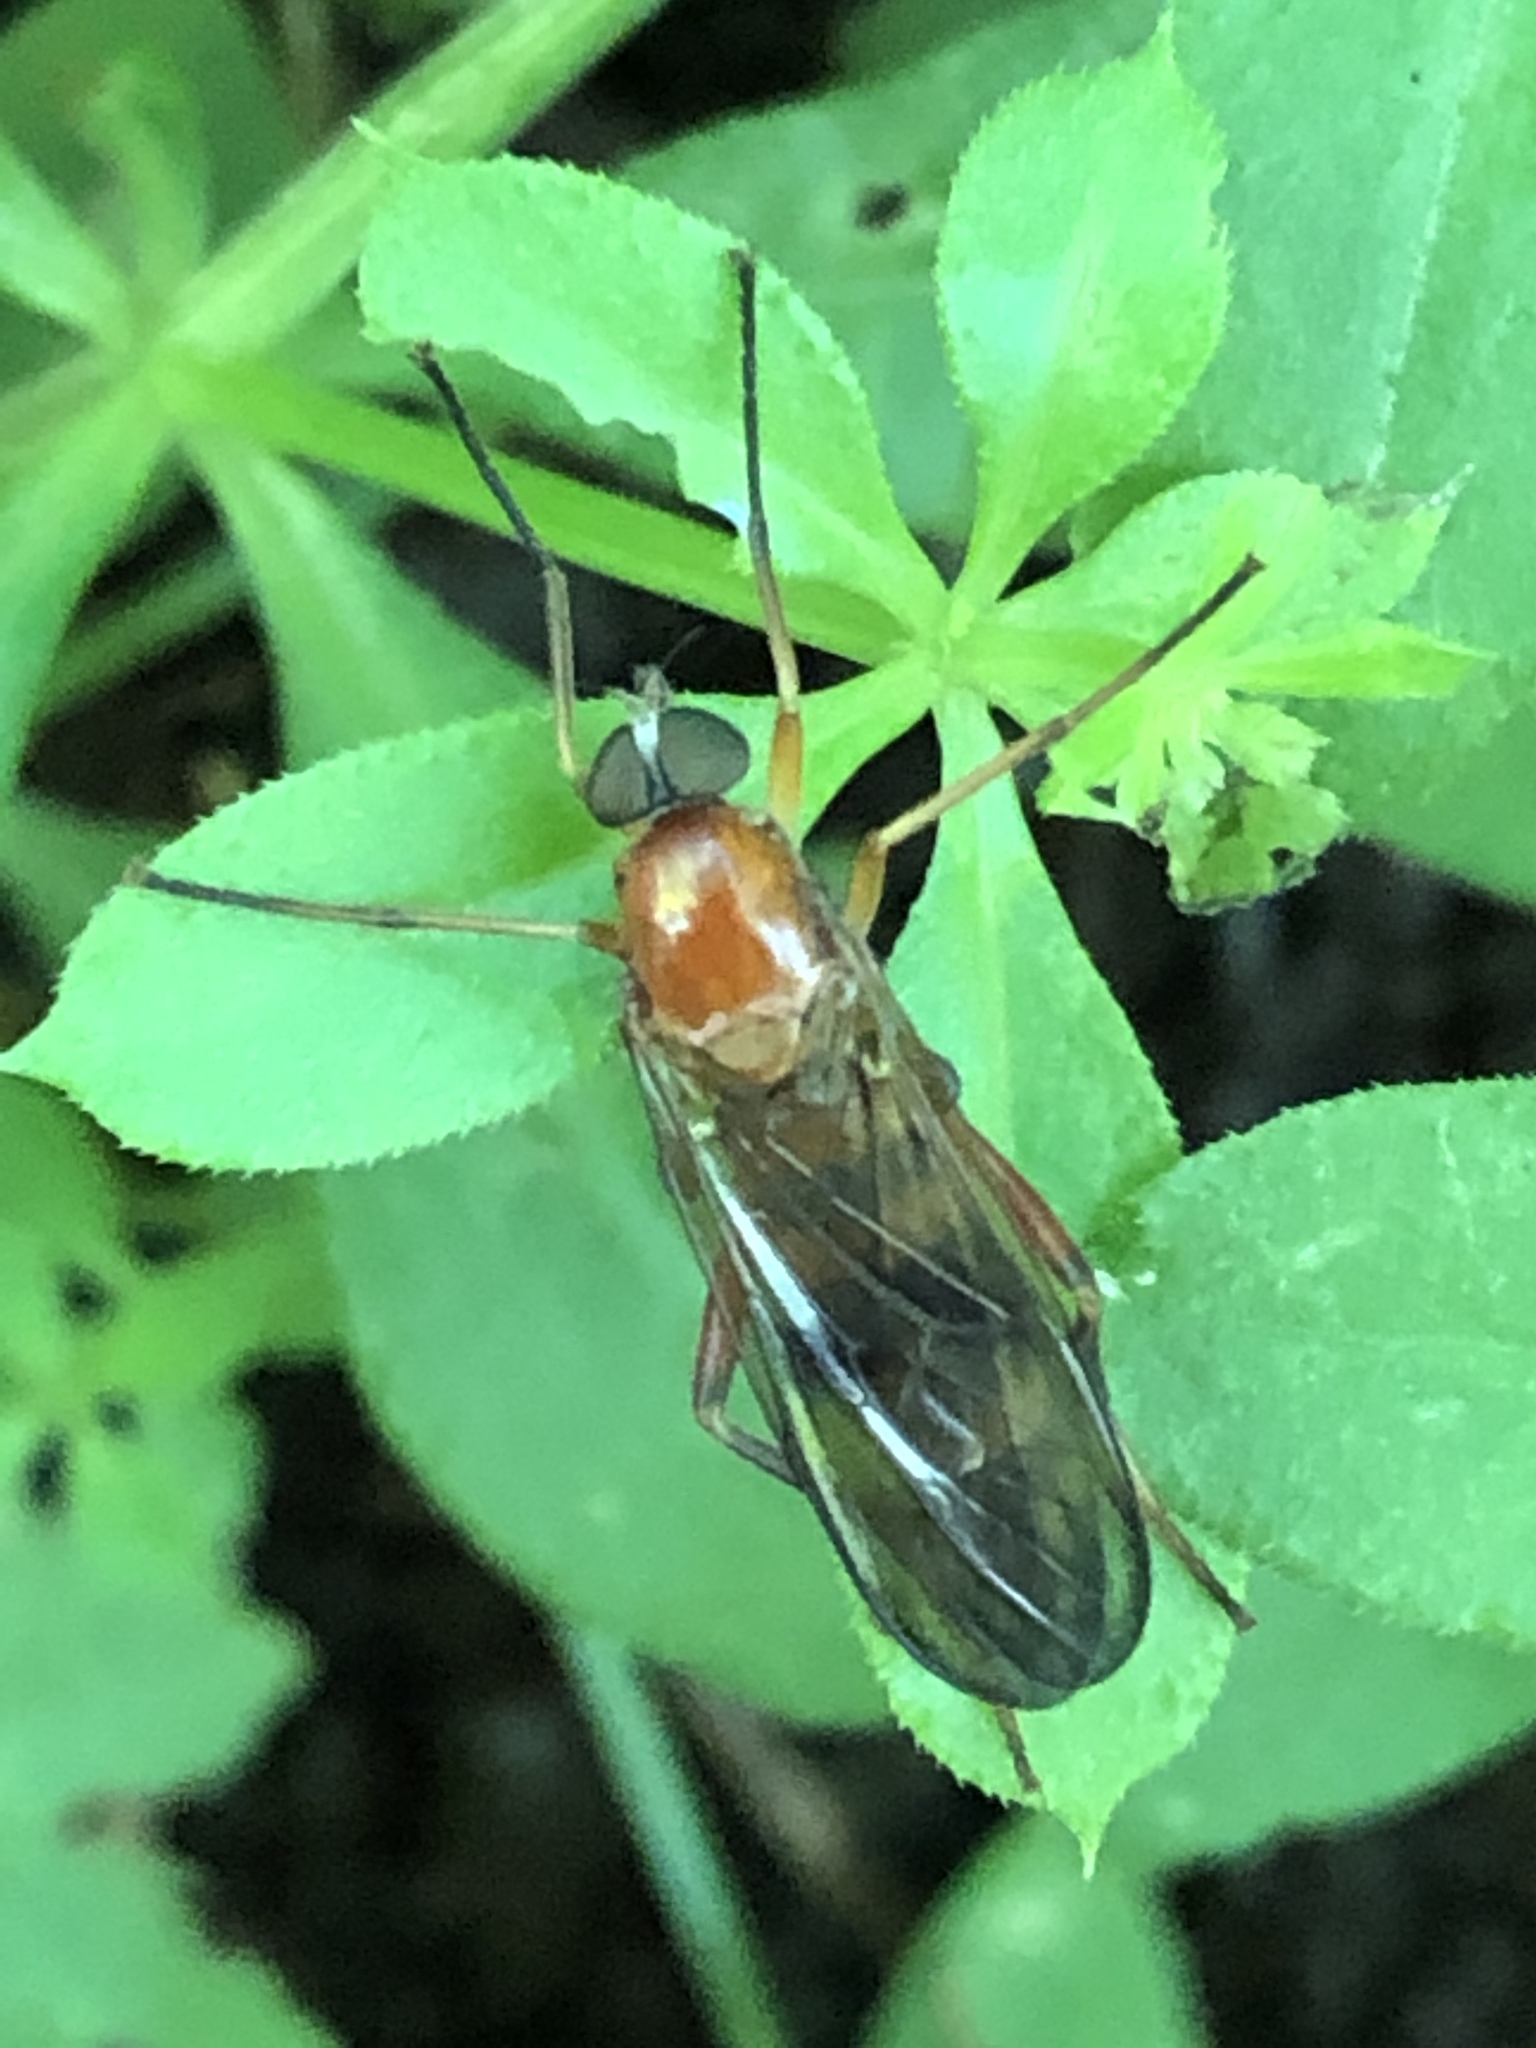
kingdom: Animalia
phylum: Arthropoda
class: Insecta
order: Diptera
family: Xylophagidae
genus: Dialysis
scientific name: Dialysis fasciventris
